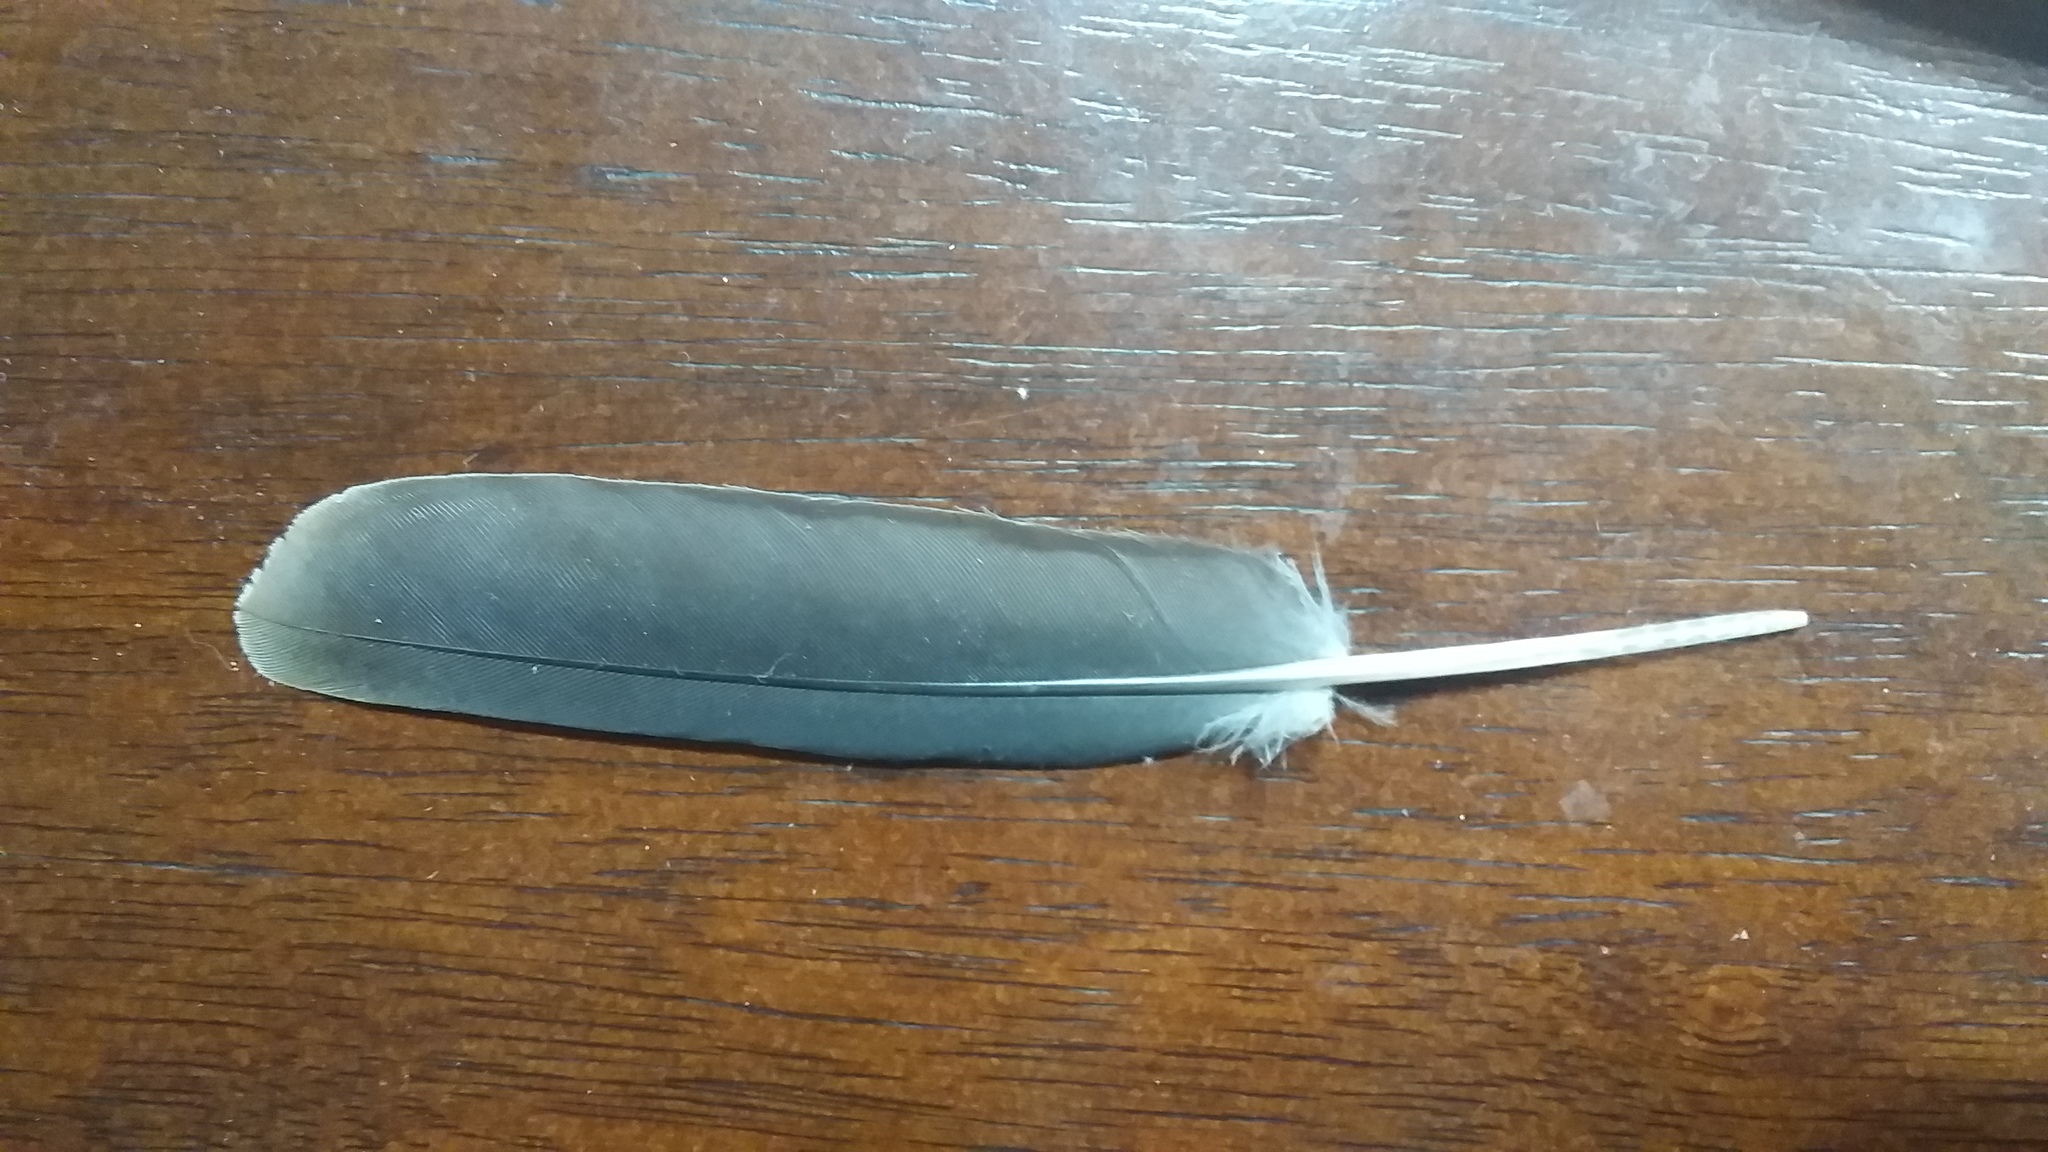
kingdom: Animalia
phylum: Chordata
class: Aves
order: Columbiformes
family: Columbidae
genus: Zenaida
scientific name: Zenaida macroura
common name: Mourning dove
